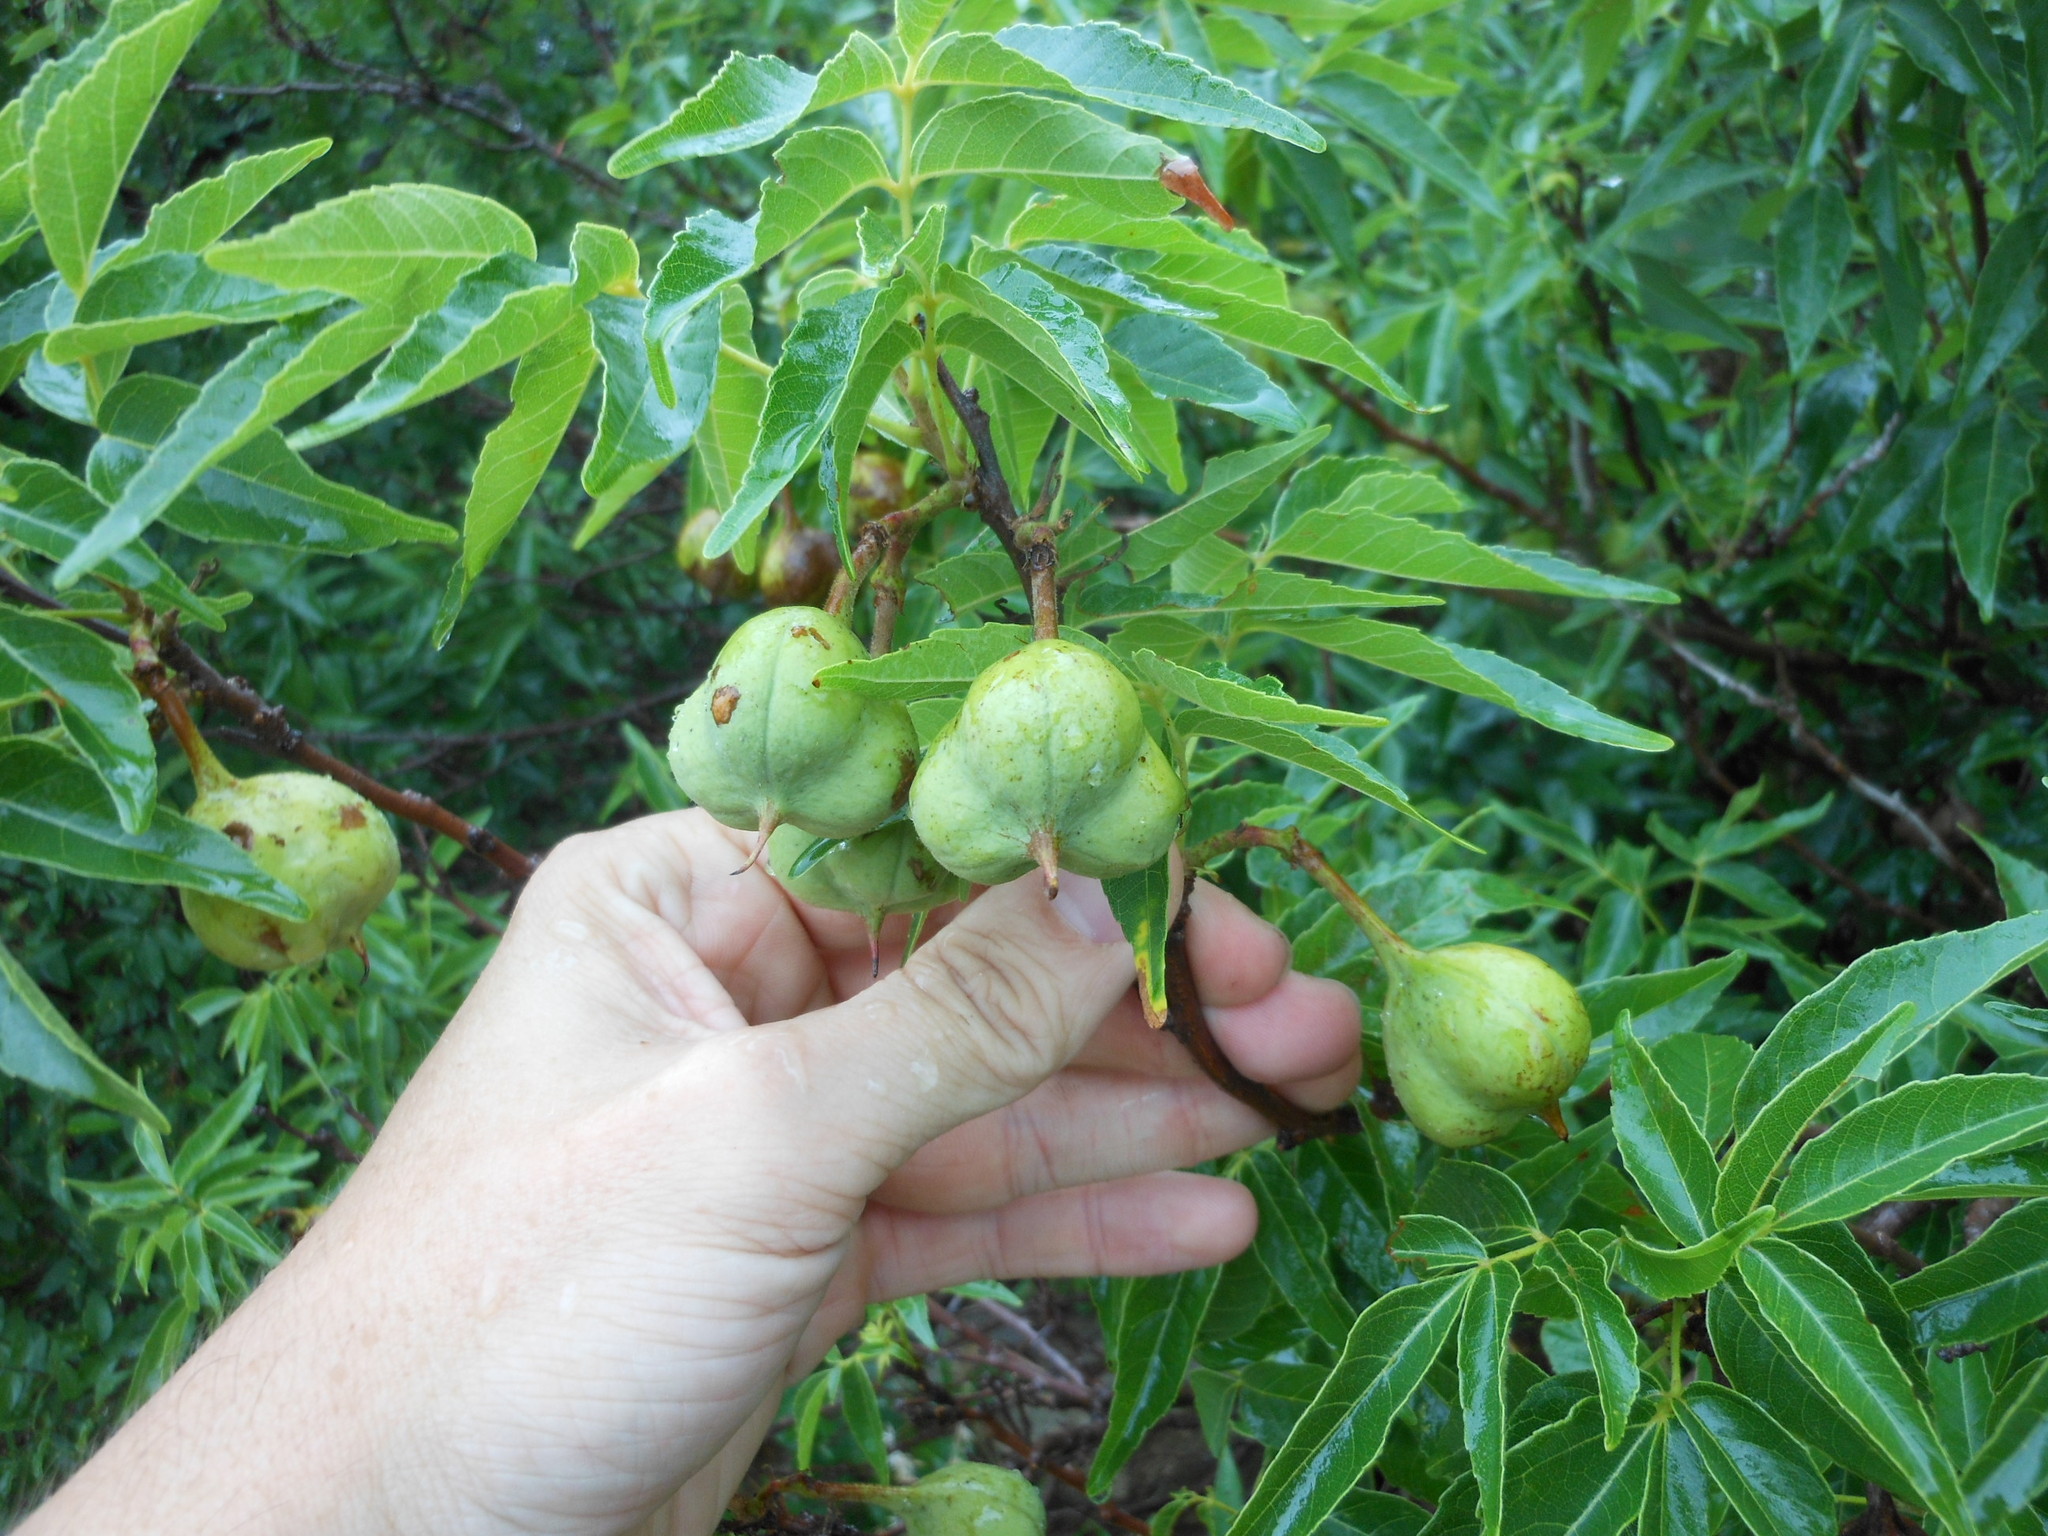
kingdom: Plantae
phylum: Tracheophyta
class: Magnoliopsida
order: Sapindales
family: Sapindaceae
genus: Ungnadia
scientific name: Ungnadia speciosa
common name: Texas-buckeye
